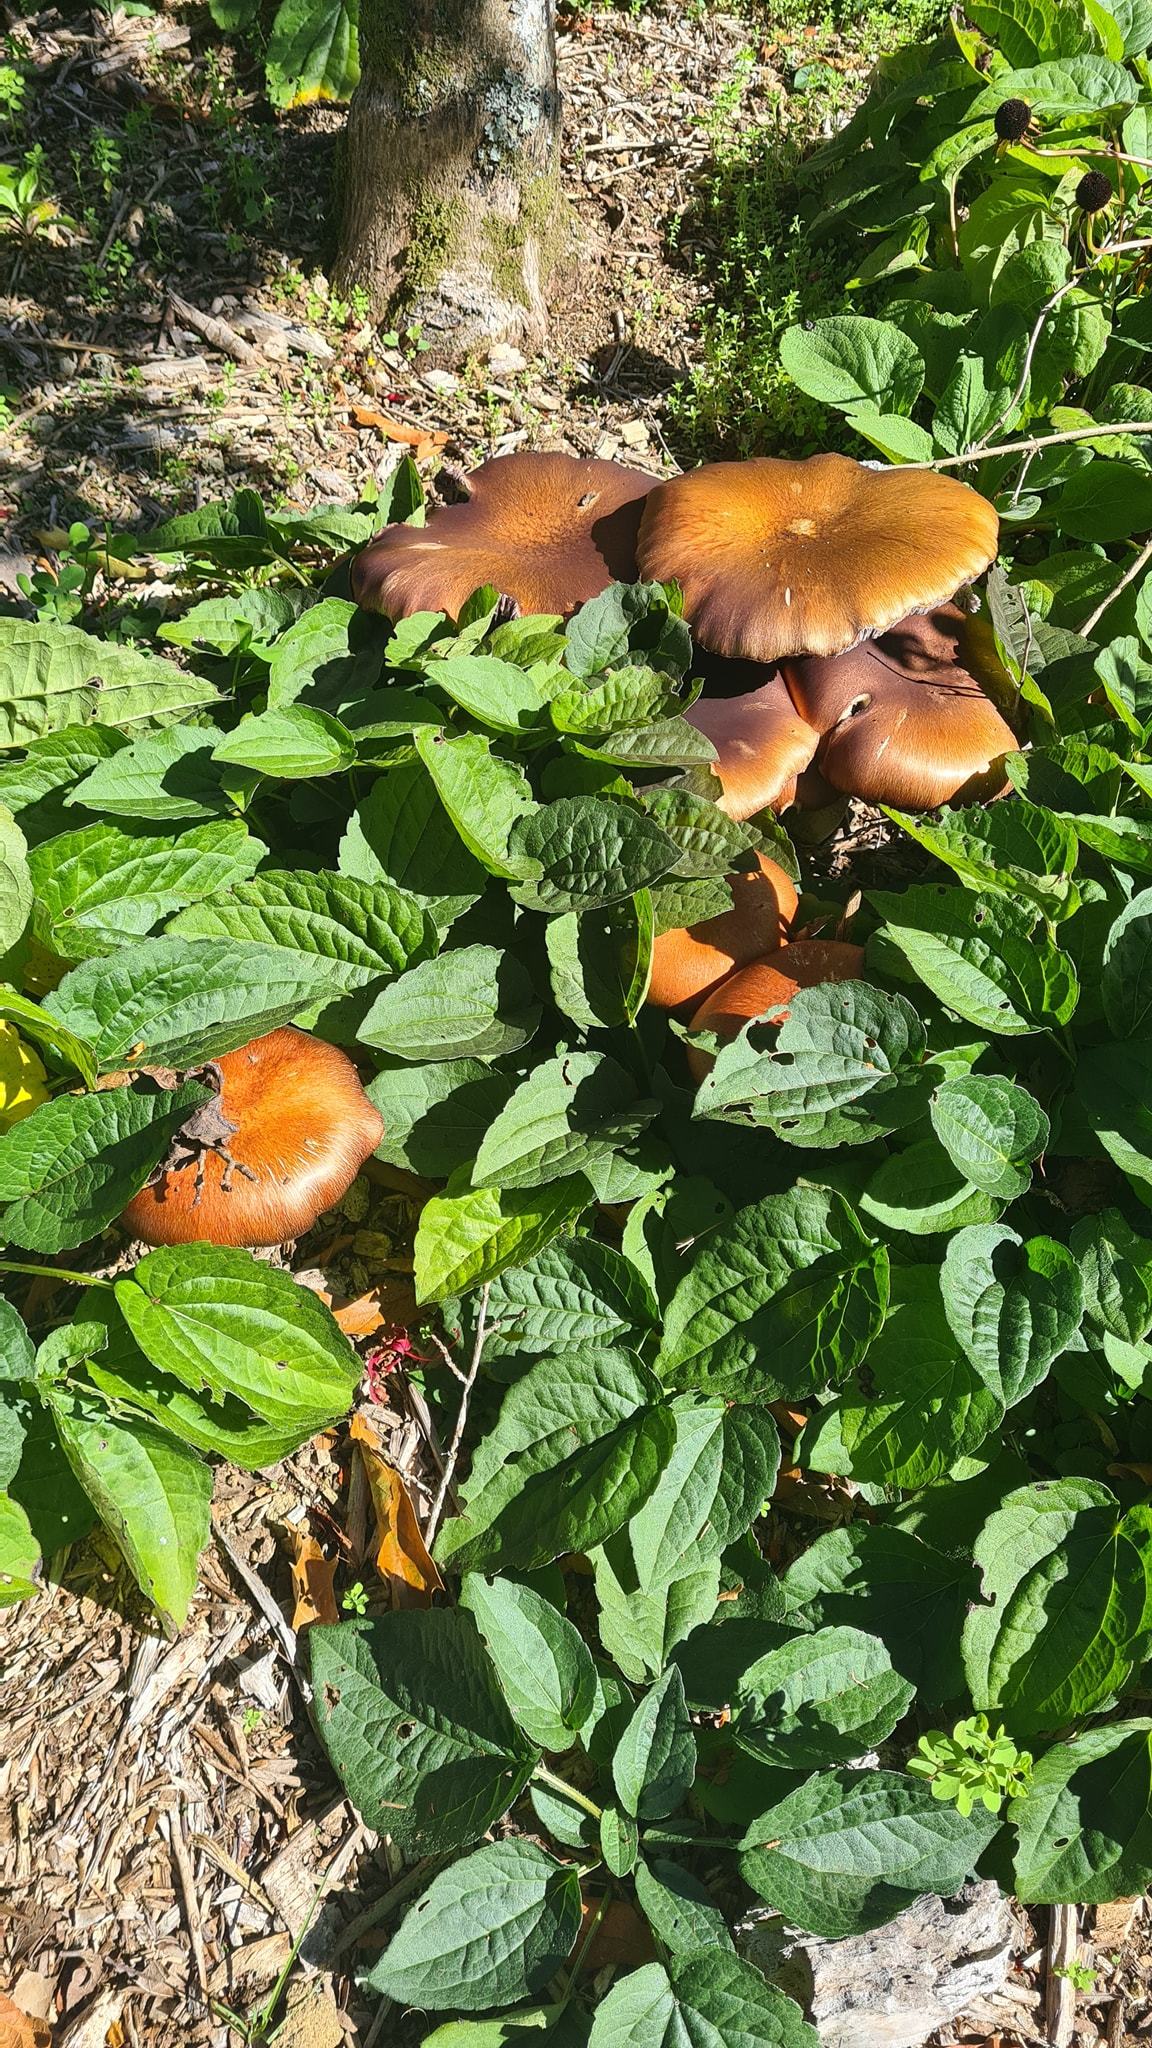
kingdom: Fungi
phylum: Basidiomycota
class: Agaricomycetes
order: Agaricales
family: Strophariaceae
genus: Stropharia
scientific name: Stropharia rugosoannulata
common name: Wine roundhead
